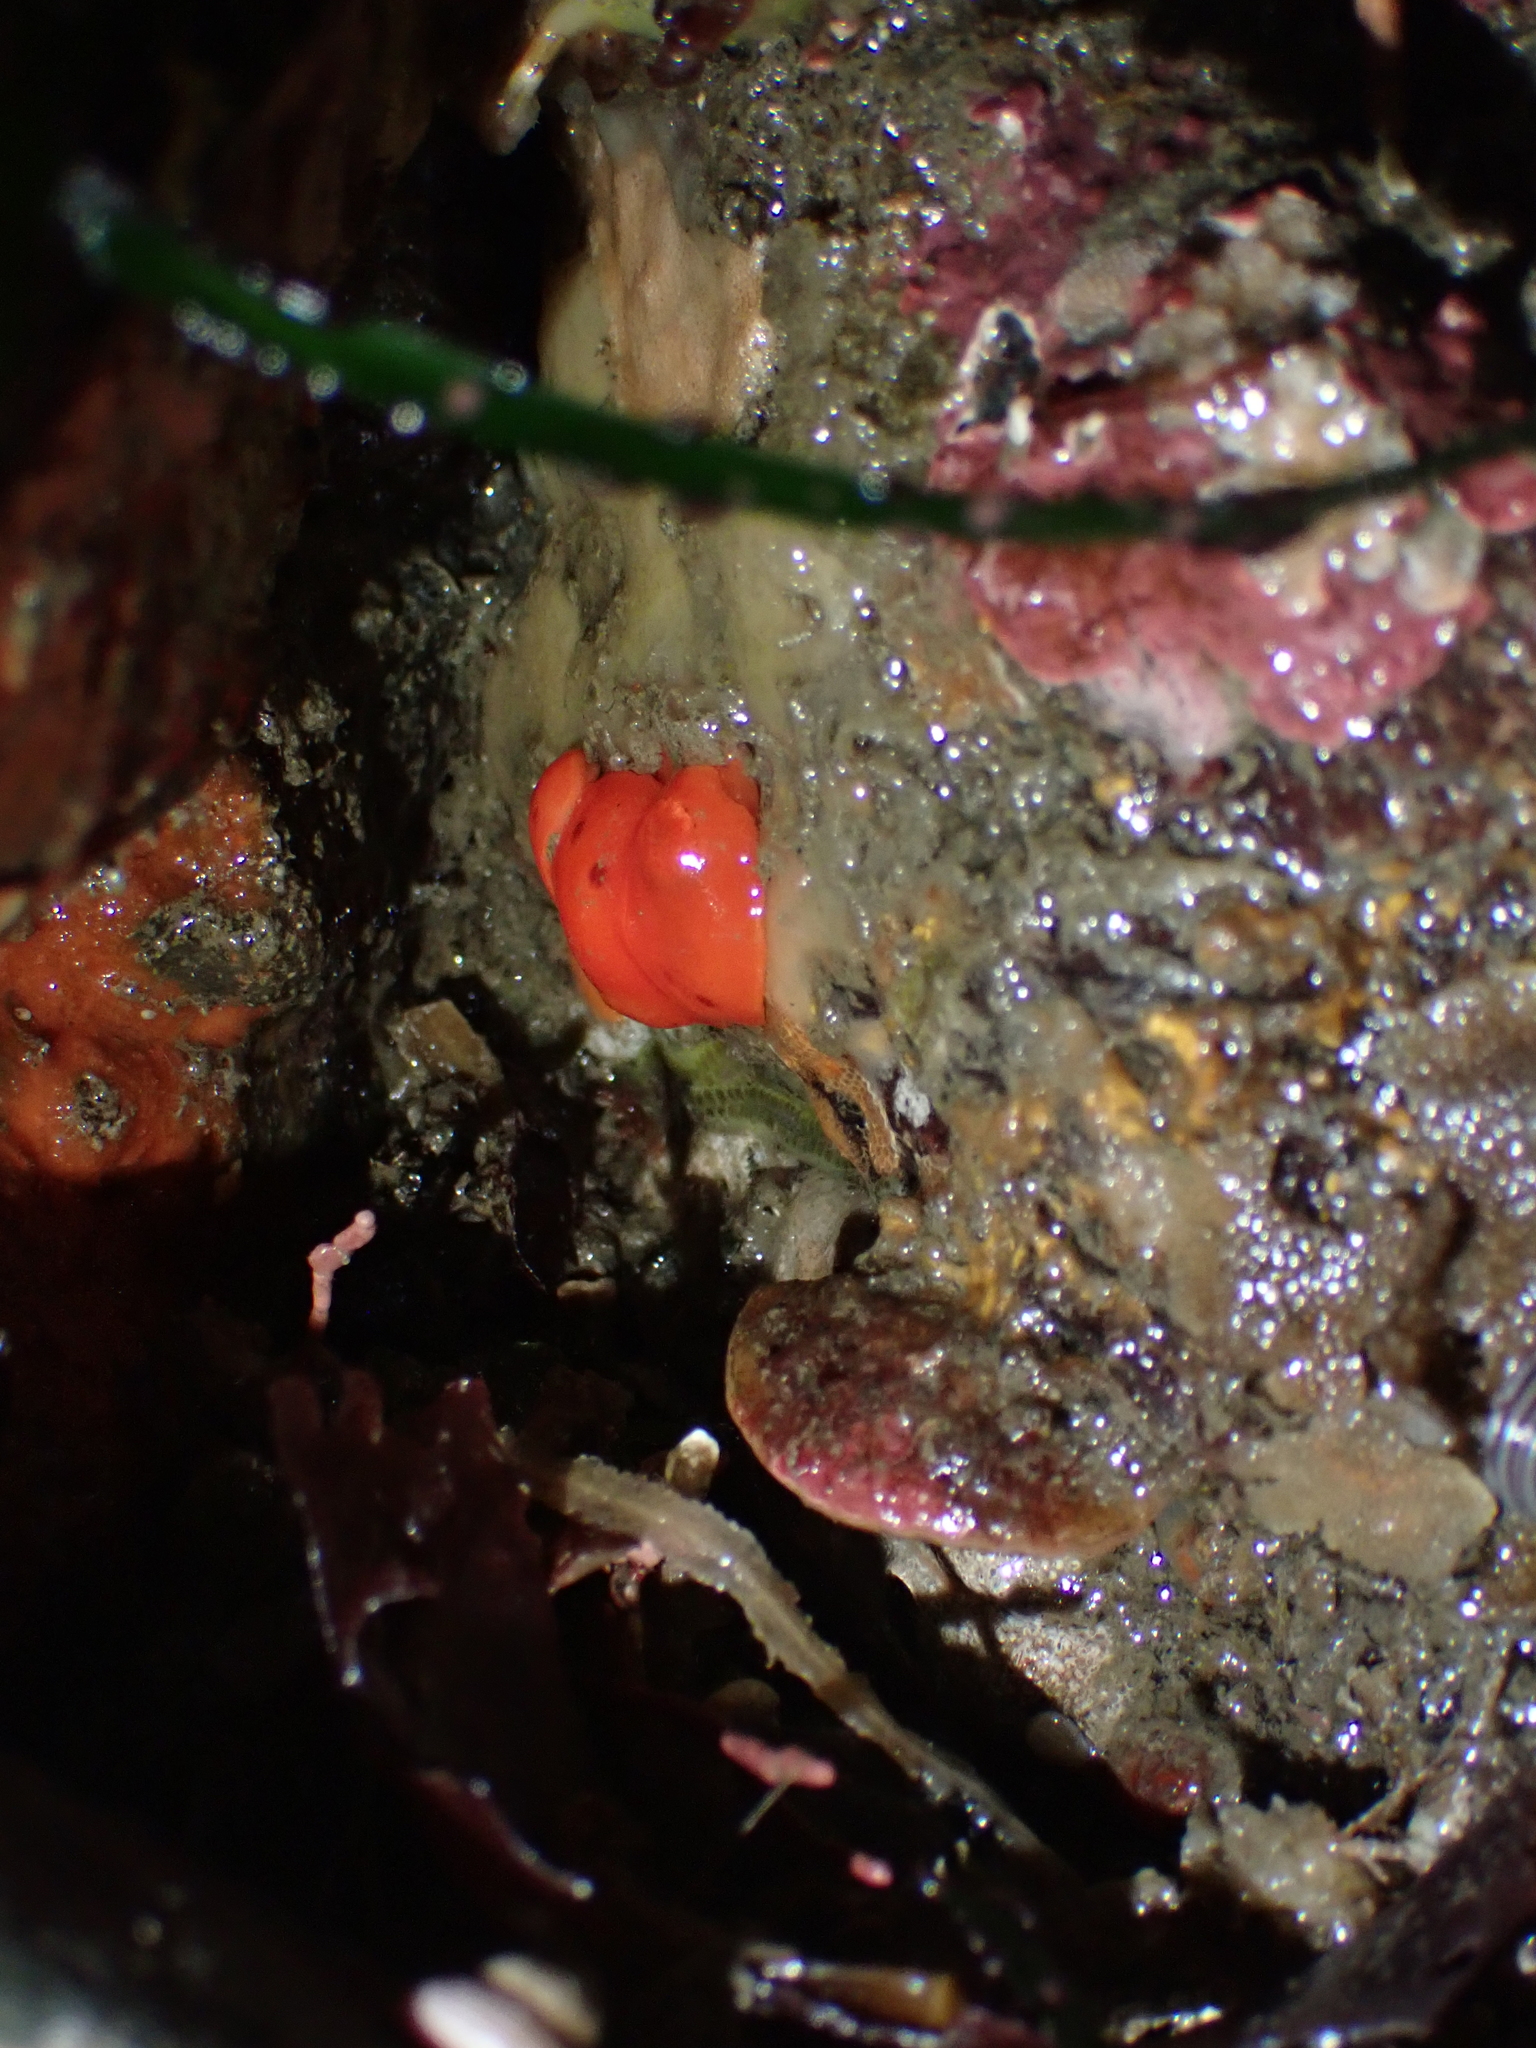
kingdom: Animalia
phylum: Mollusca
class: Gastropoda
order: Nudibranchia
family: Discodorididae
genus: Rostanga
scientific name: Rostanga pulchra
